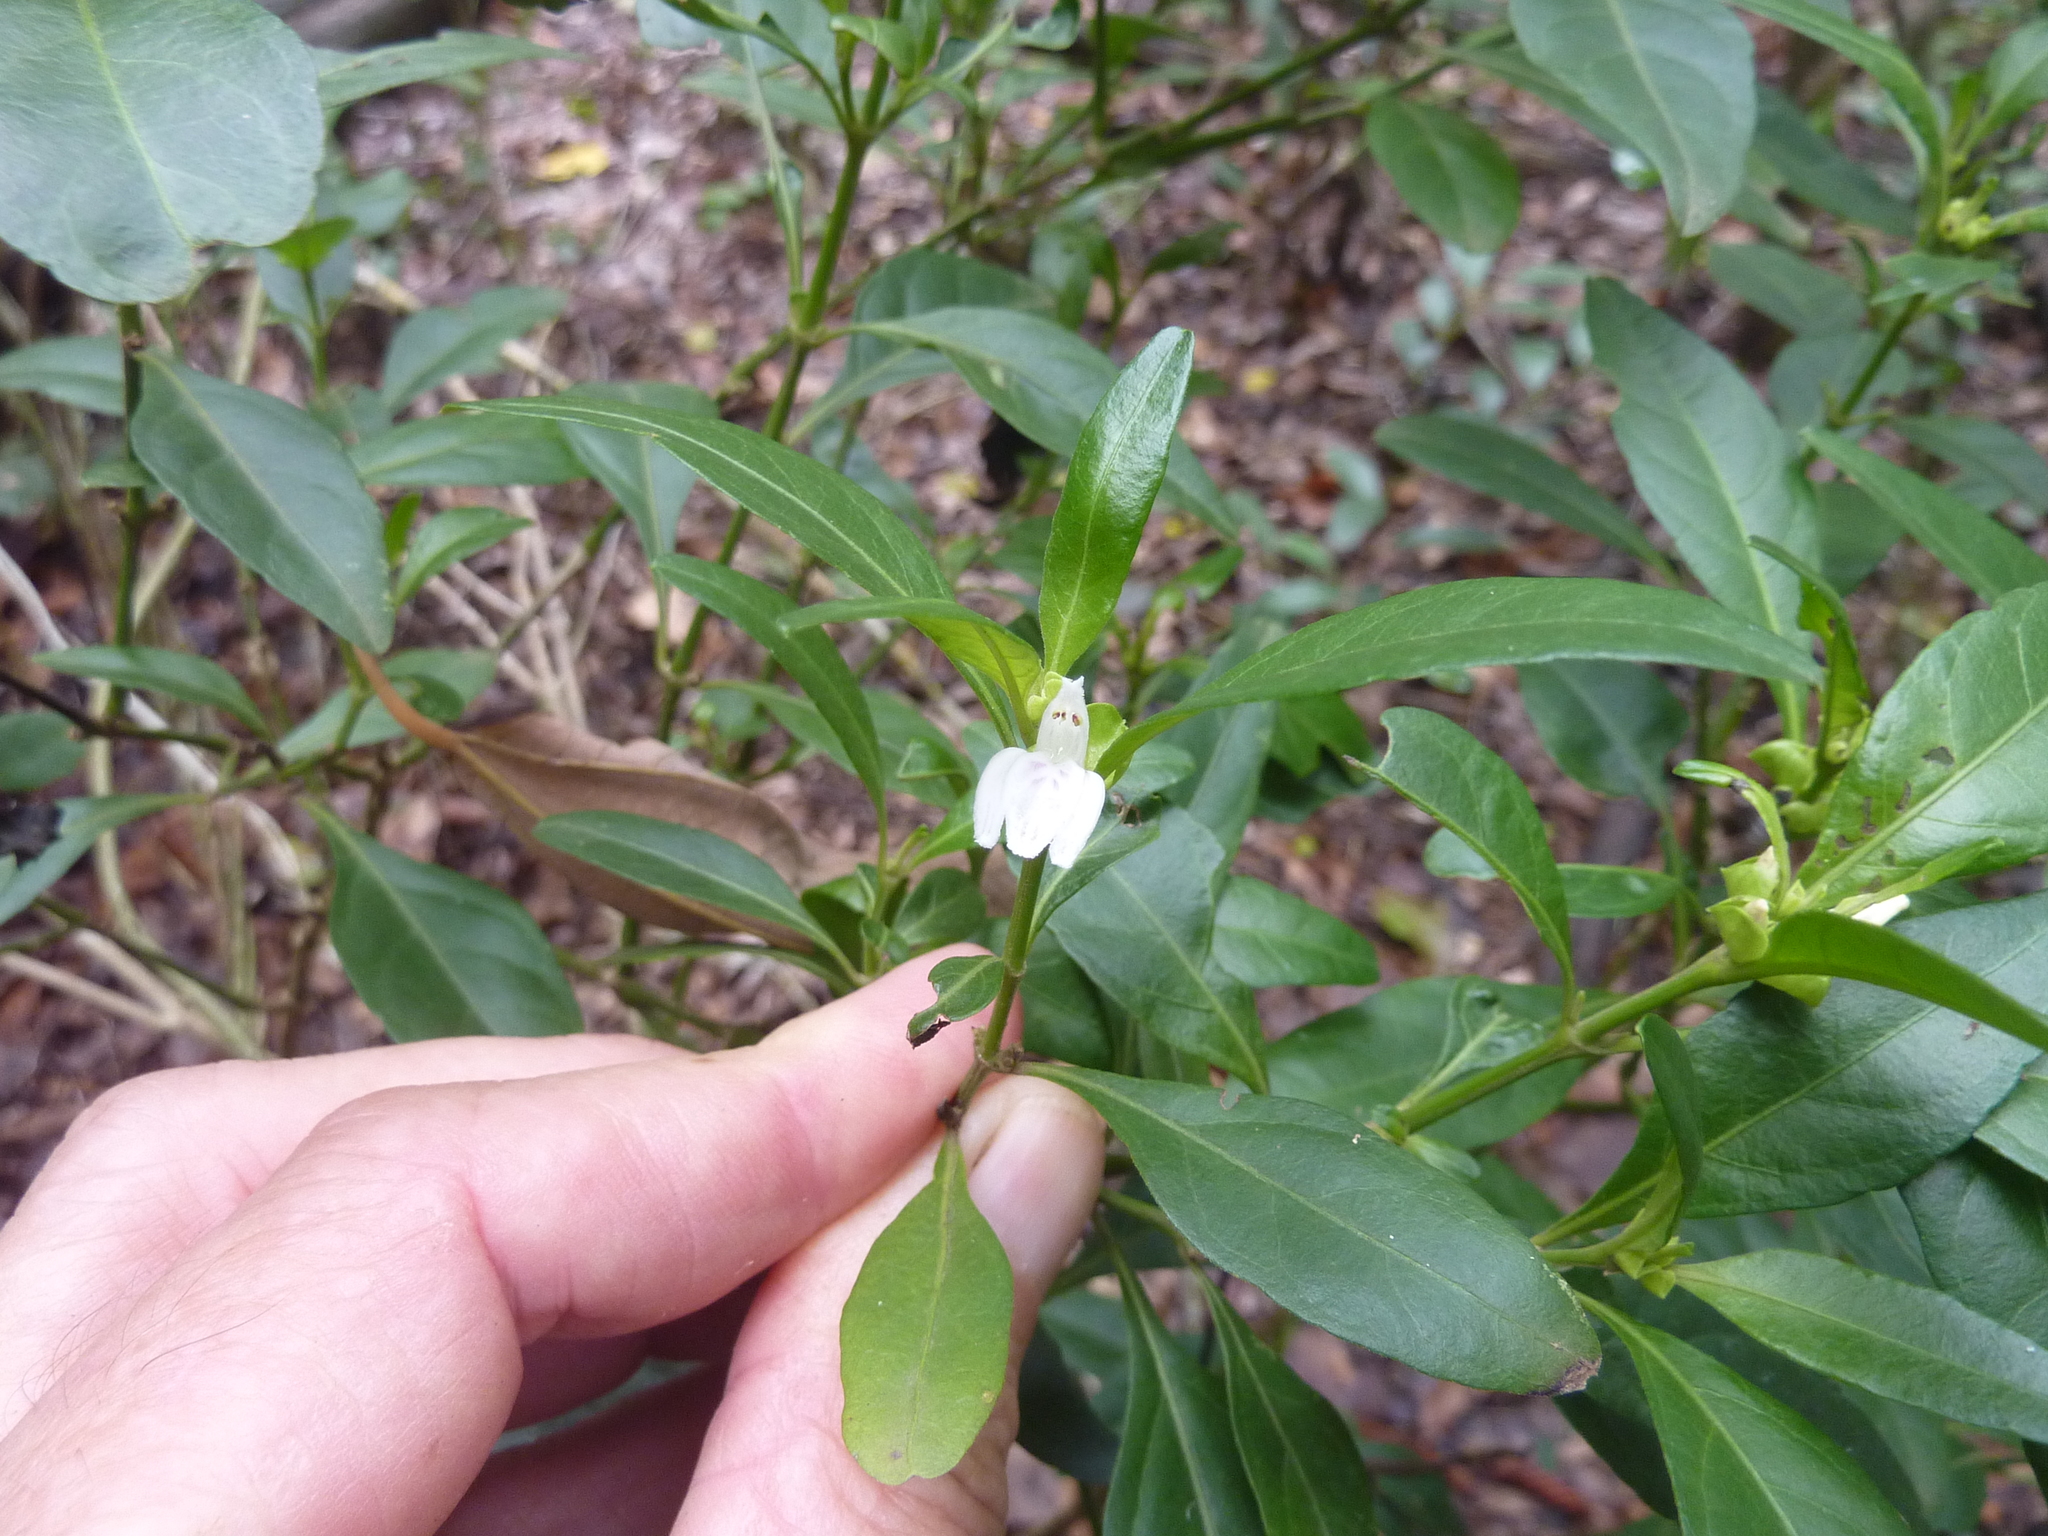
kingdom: Plantae
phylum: Tracheophyta
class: Magnoliopsida
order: Lamiales
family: Acanthaceae
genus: Justicia
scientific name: Justicia hygrophiloides
